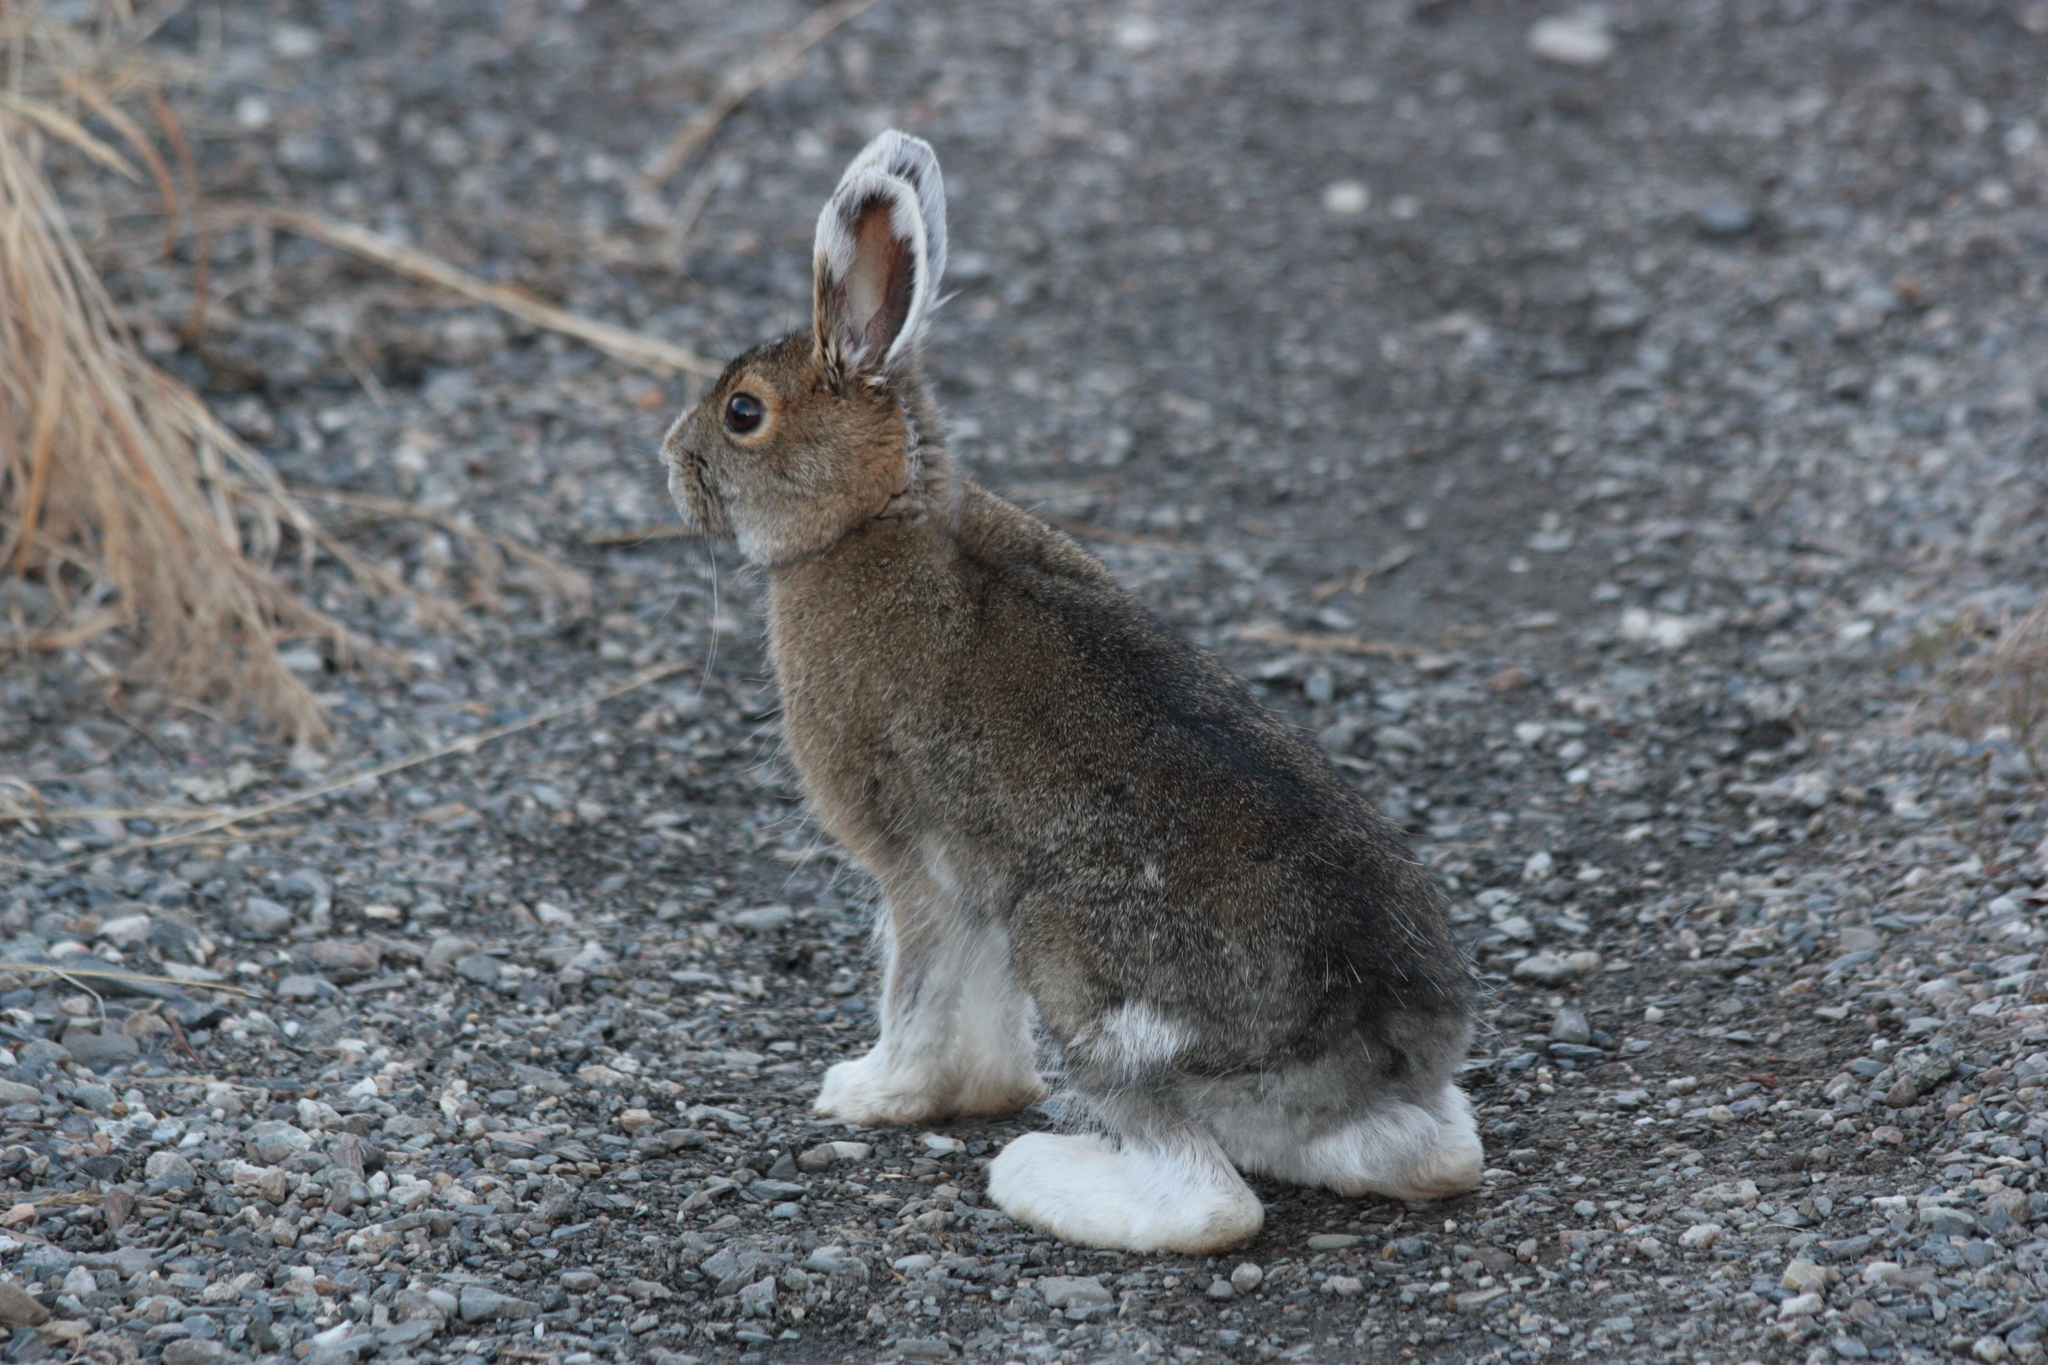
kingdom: Animalia
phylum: Chordata
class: Mammalia
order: Lagomorpha
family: Leporidae
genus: Lepus
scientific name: Lepus americanus
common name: Snowshoe hare
